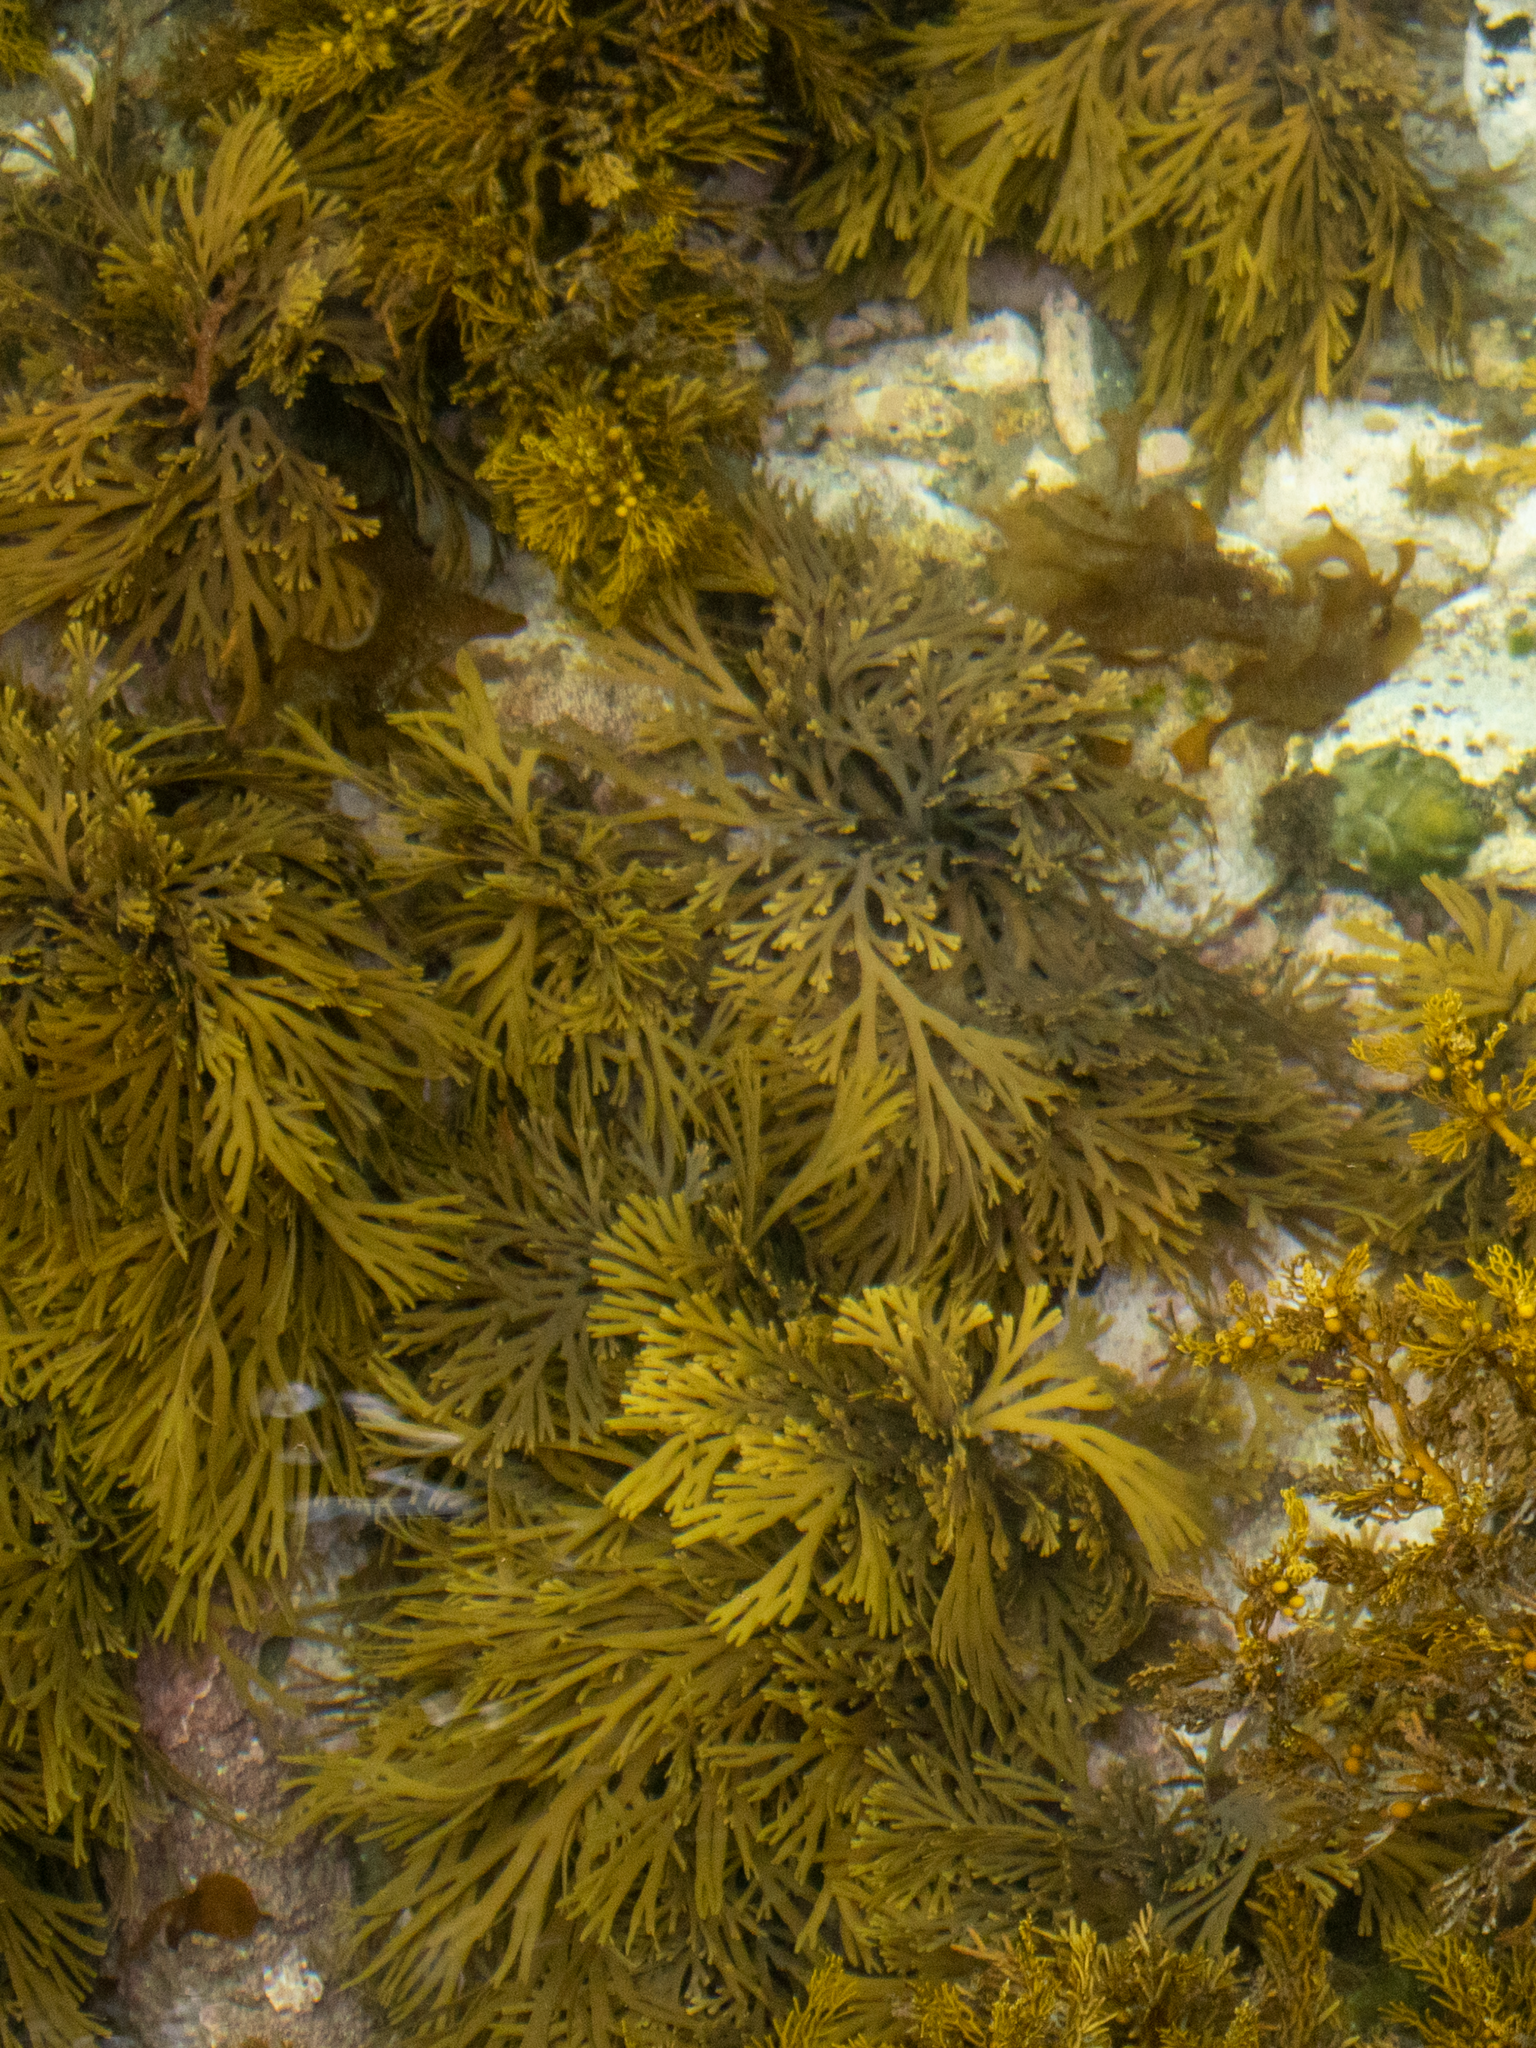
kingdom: Chromista
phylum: Ochrophyta
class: Phaeophyceae
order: Fucales
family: Xiphophoraceae
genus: Xiphophora
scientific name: Xiphophora gladiata
